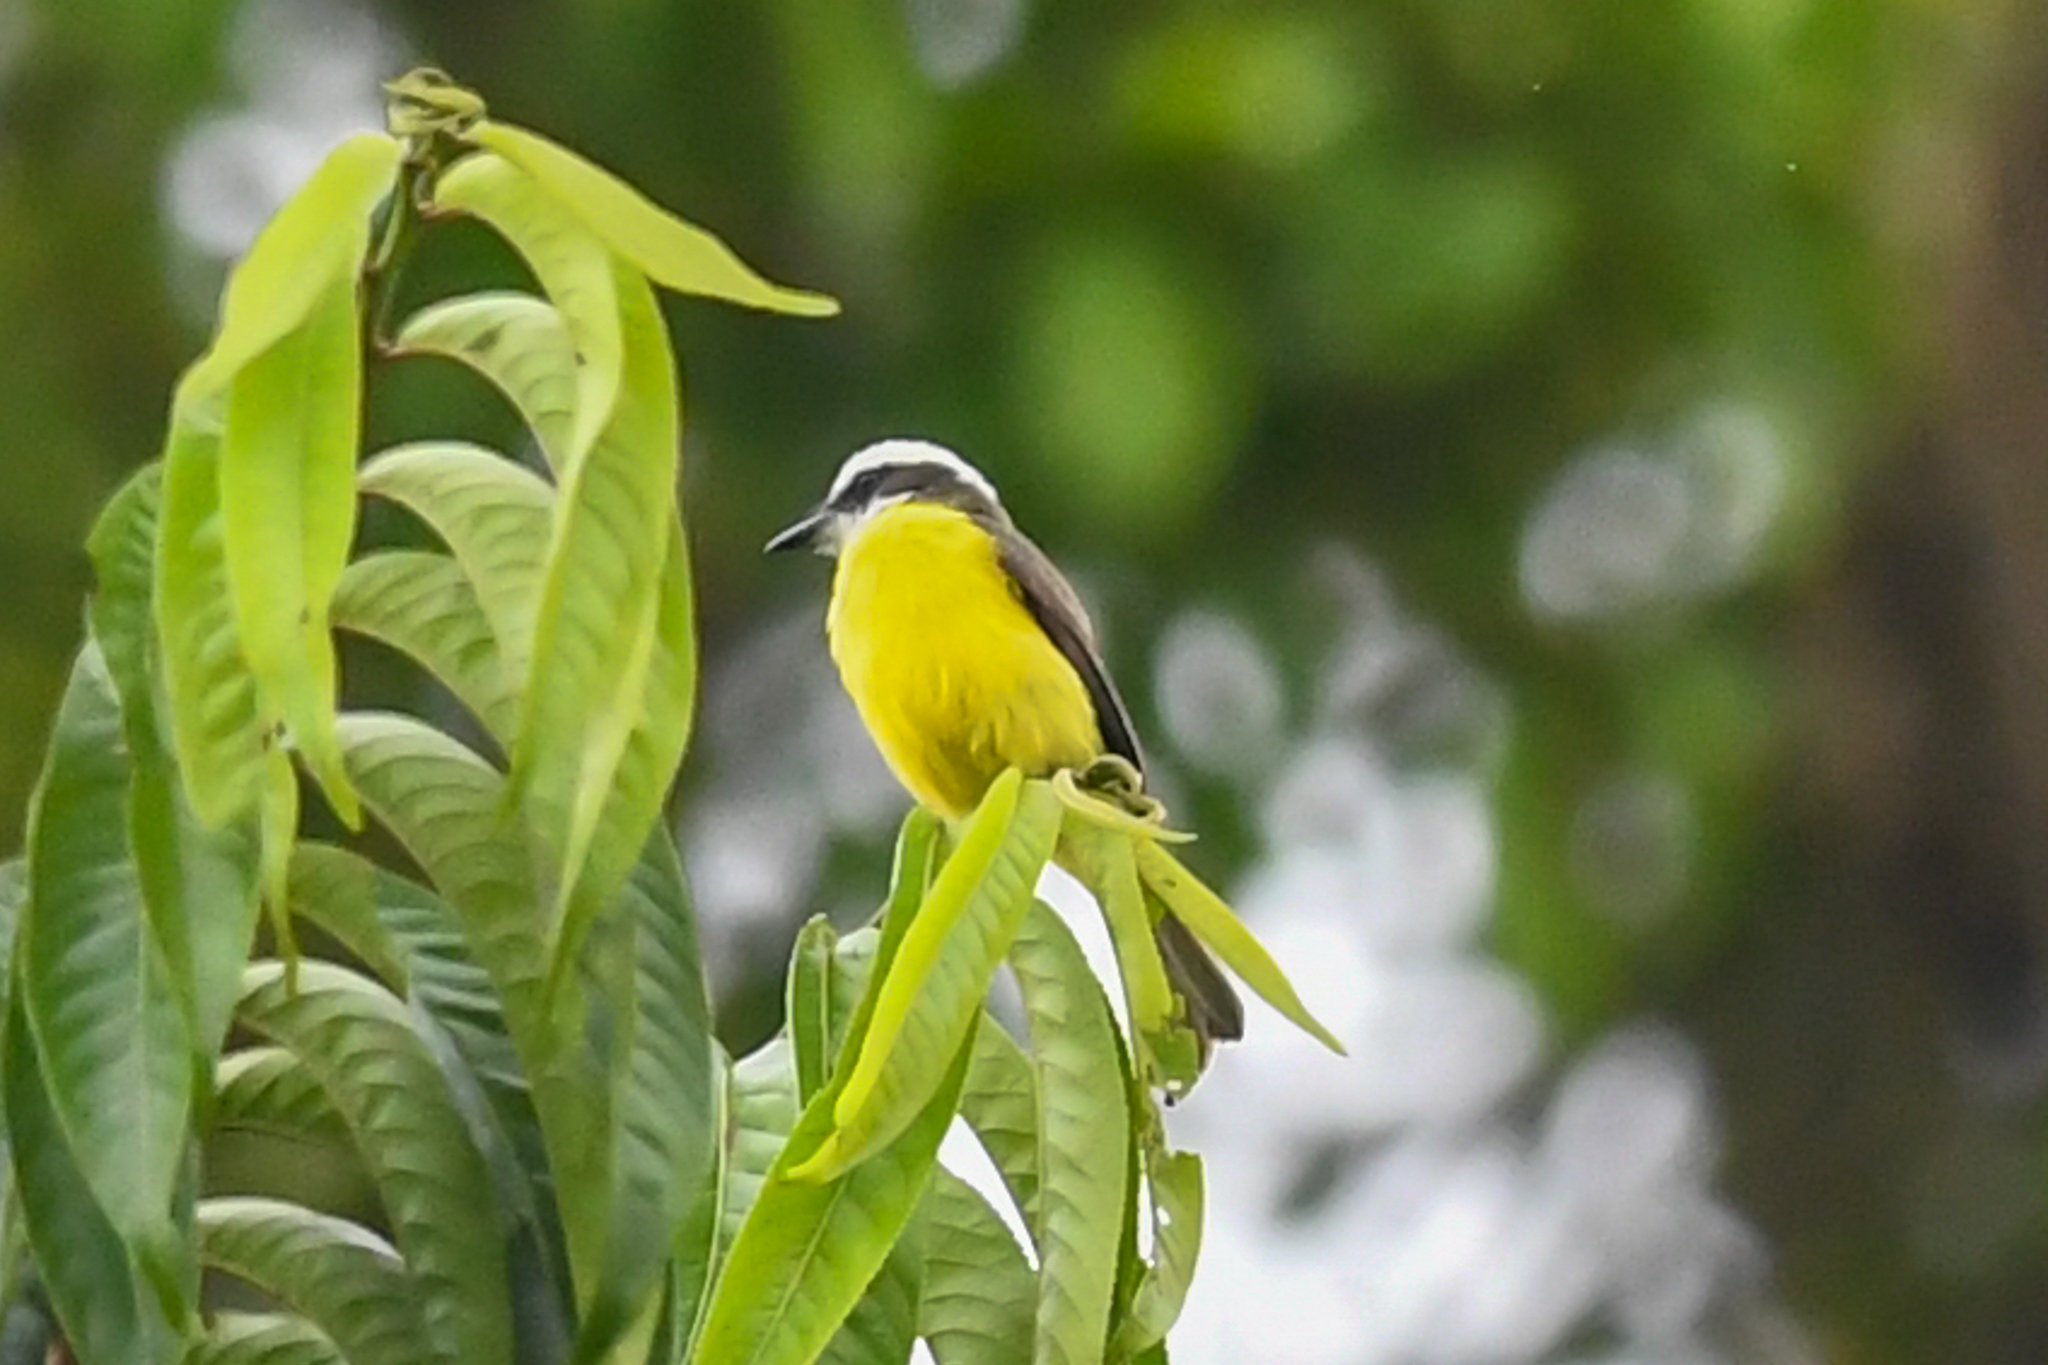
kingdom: Animalia
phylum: Chordata
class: Aves
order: Passeriformes
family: Tyrannidae
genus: Conopias
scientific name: Conopias albovittatus
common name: White-ringed flycatcher
